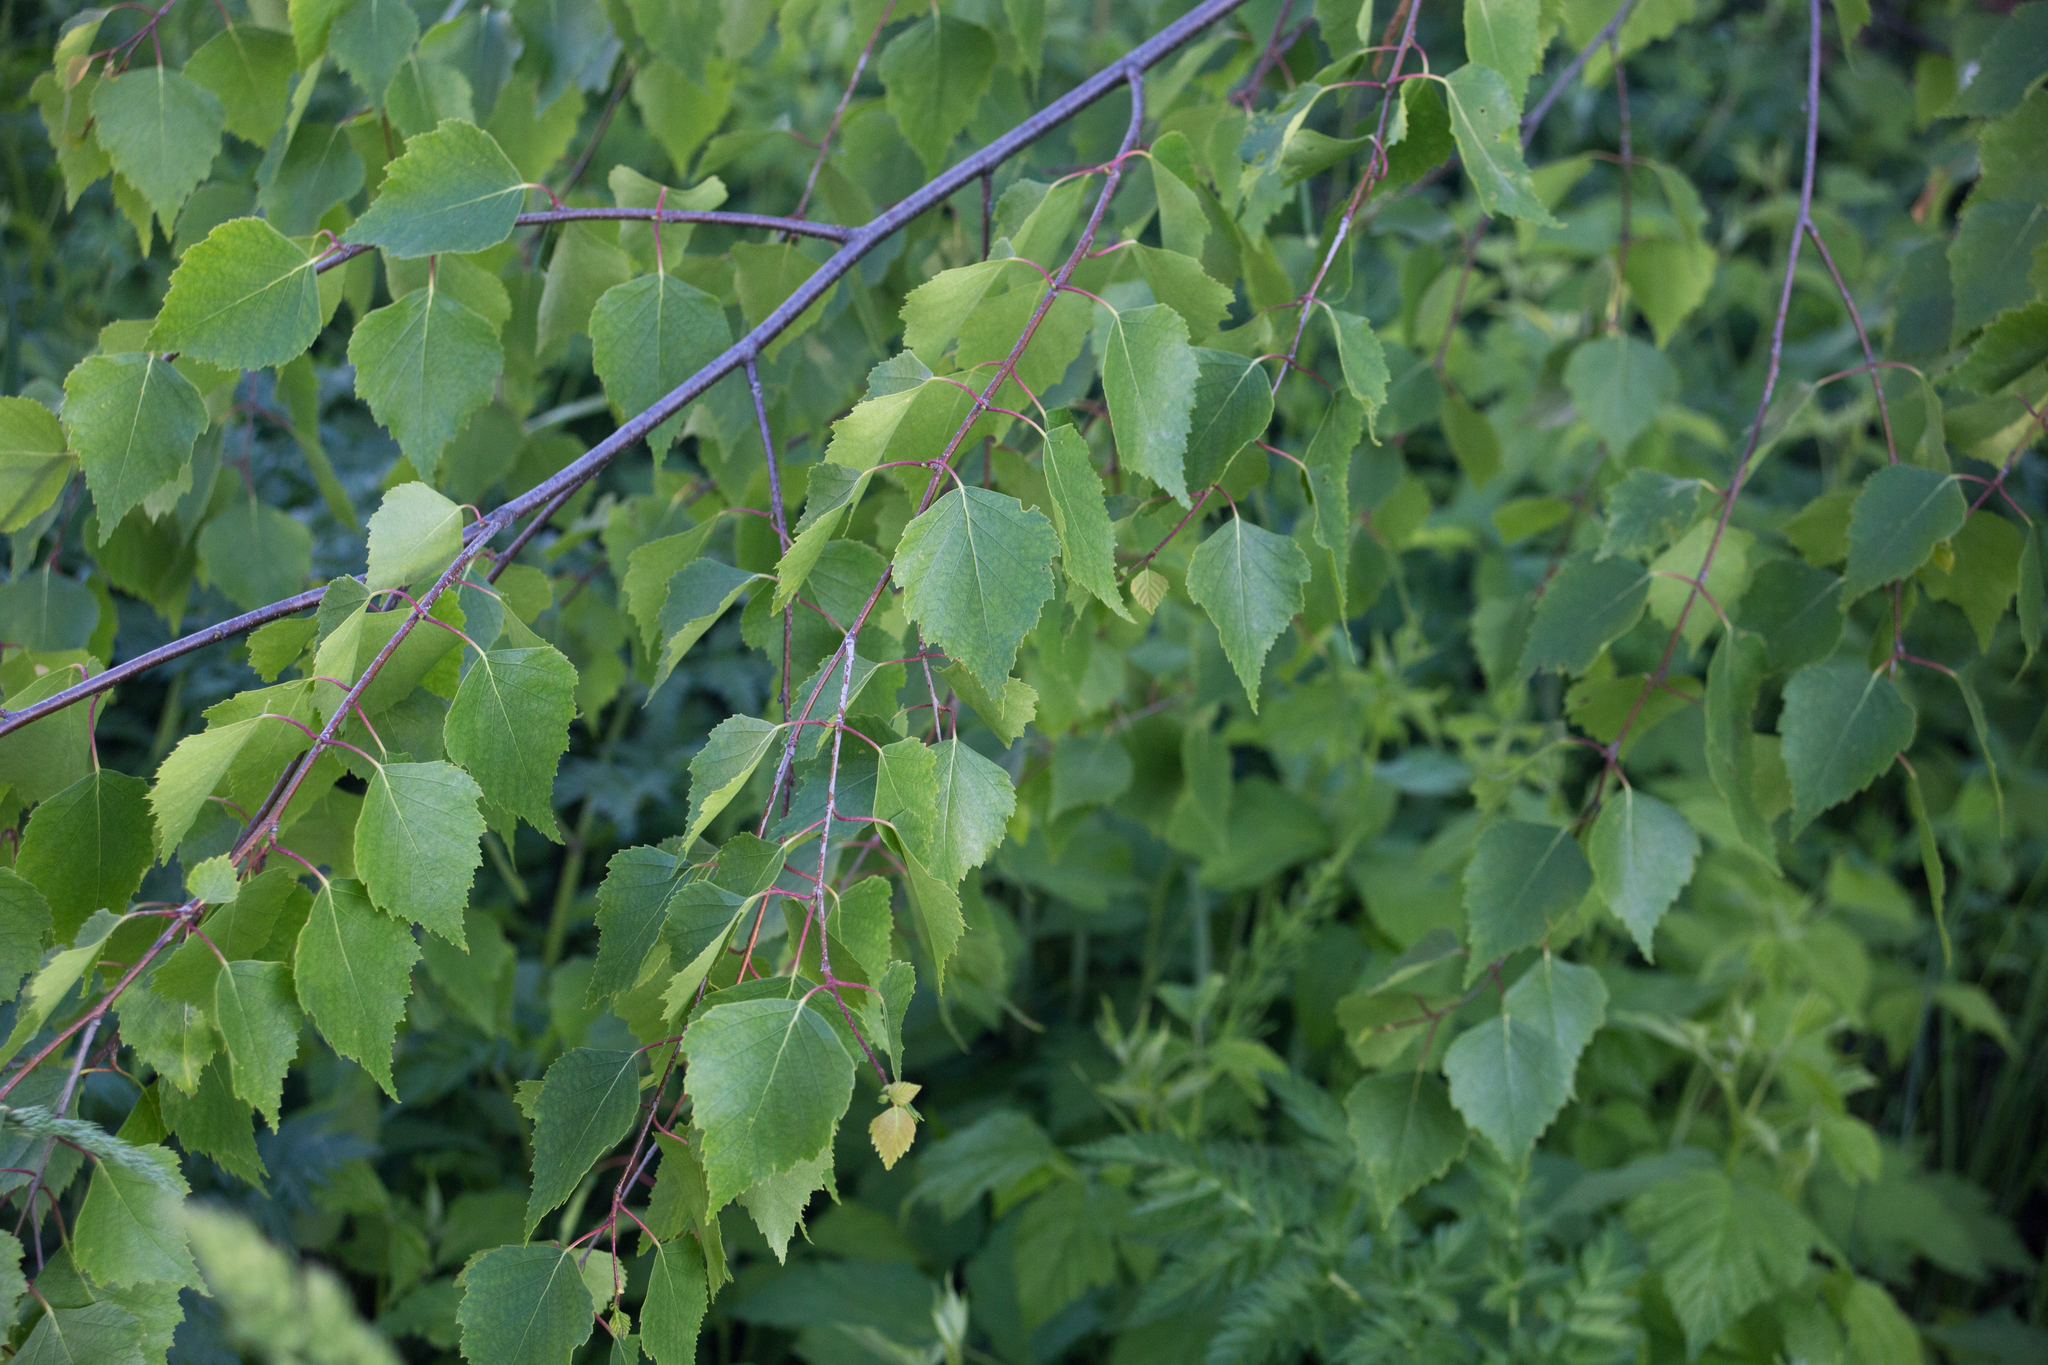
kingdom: Plantae
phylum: Tracheophyta
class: Magnoliopsida
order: Fagales
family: Betulaceae
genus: Betula
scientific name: Betula pendula
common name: Silver birch
